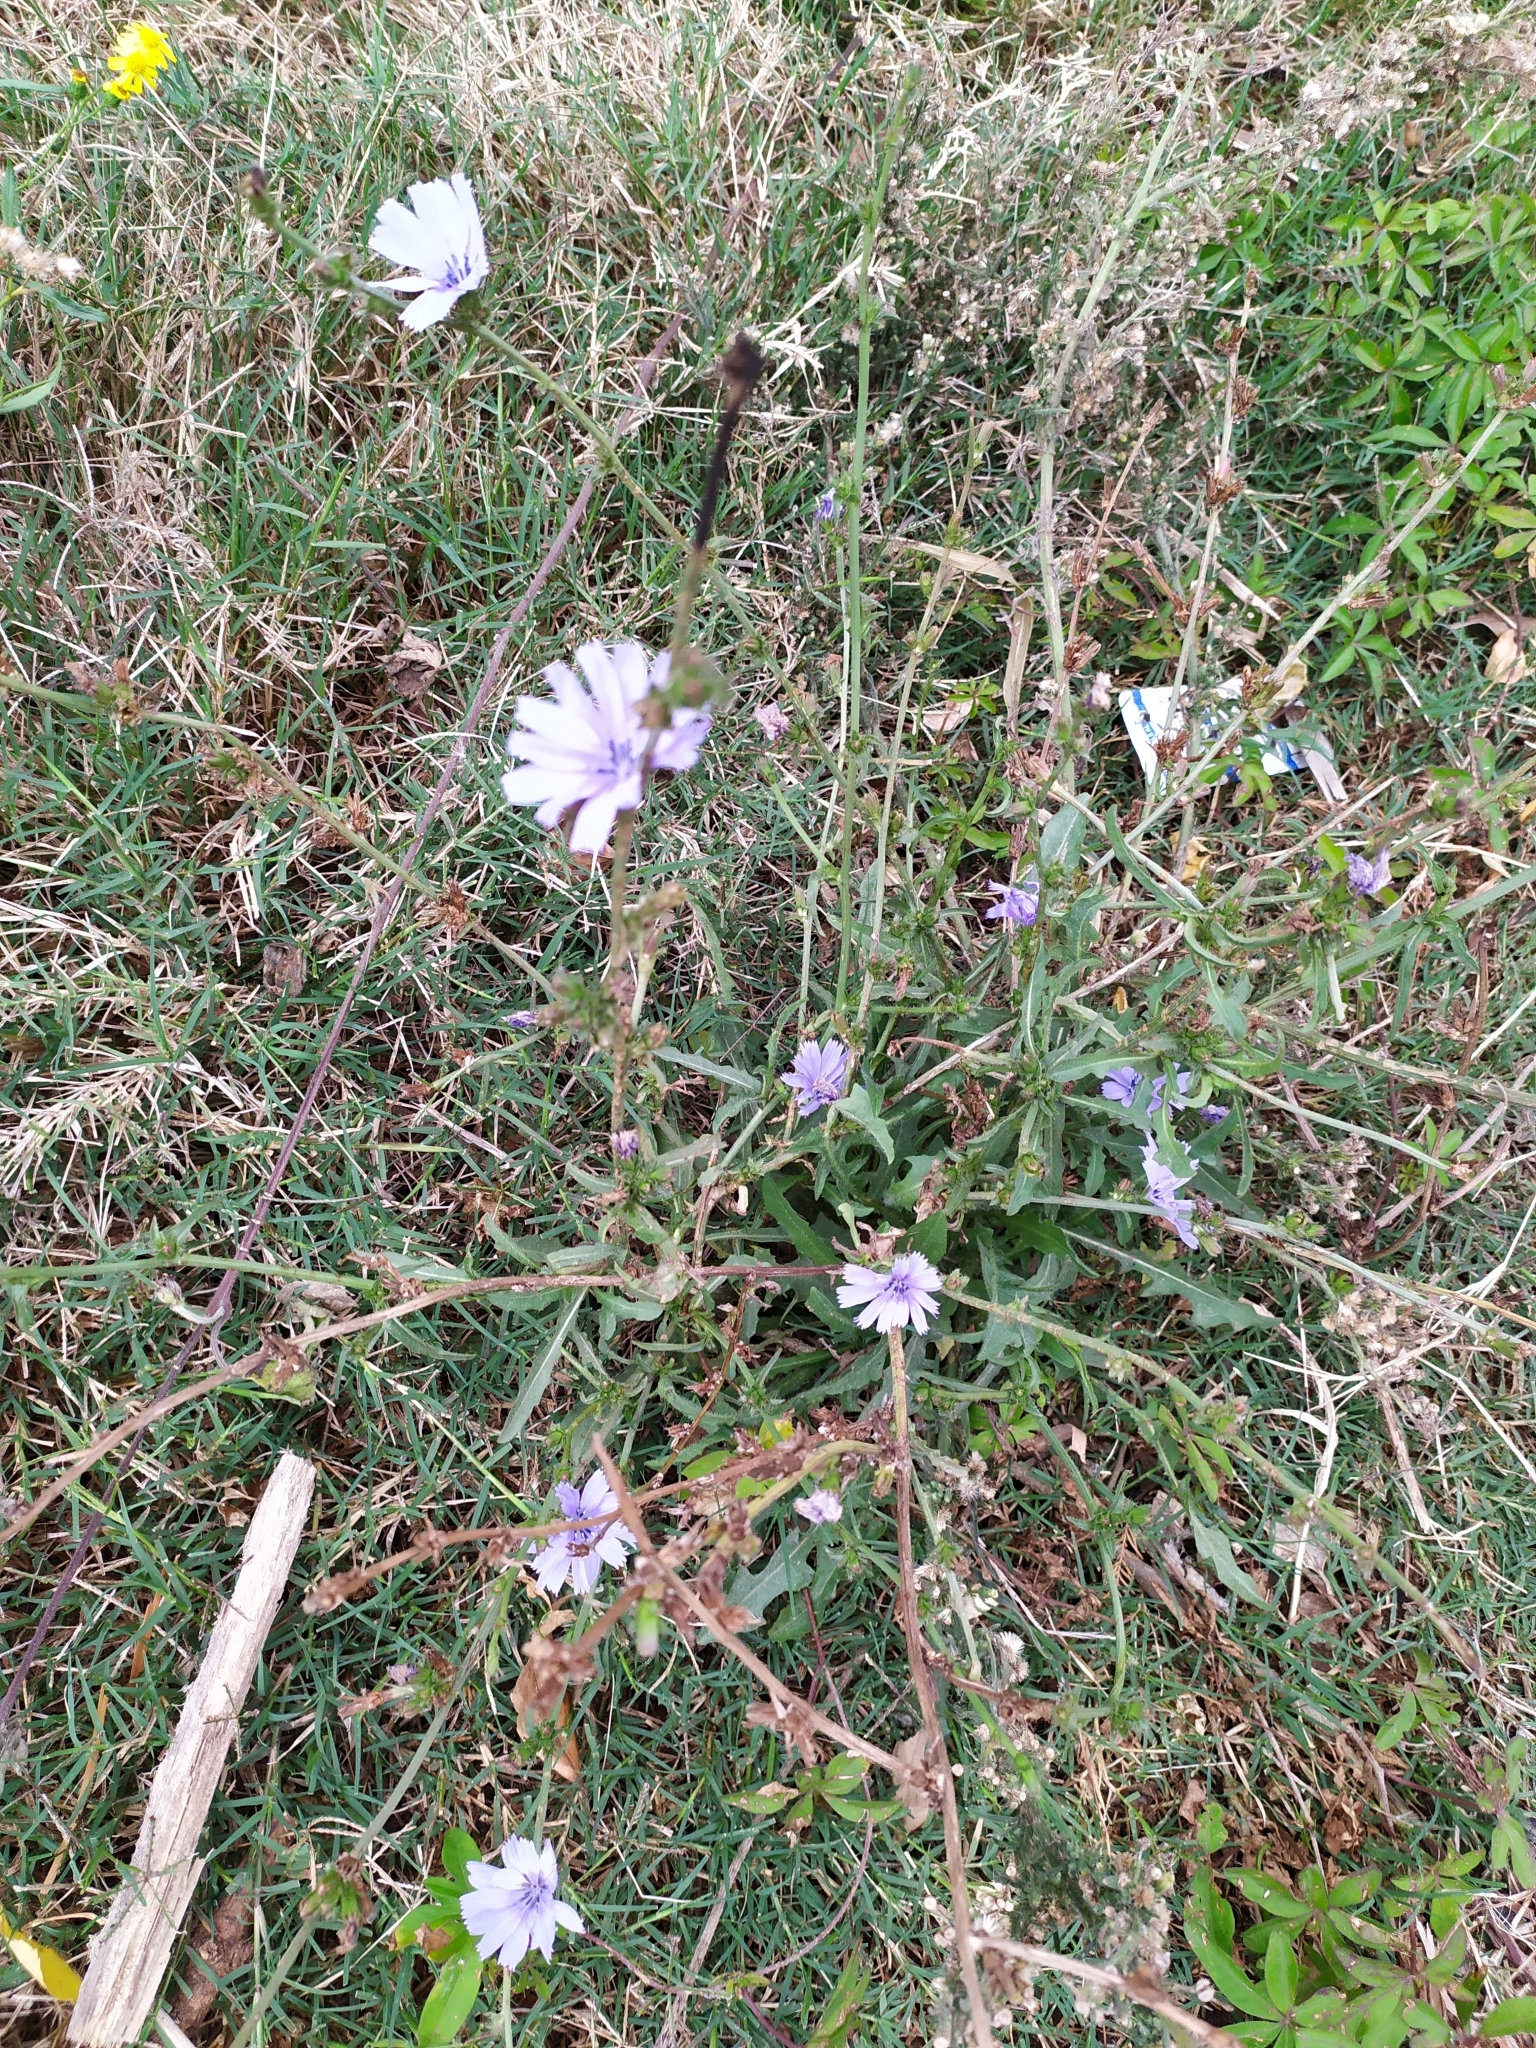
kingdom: Plantae
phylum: Tracheophyta
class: Magnoliopsida
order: Asterales
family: Asteraceae
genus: Cichorium
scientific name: Cichorium intybus
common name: Chicory
